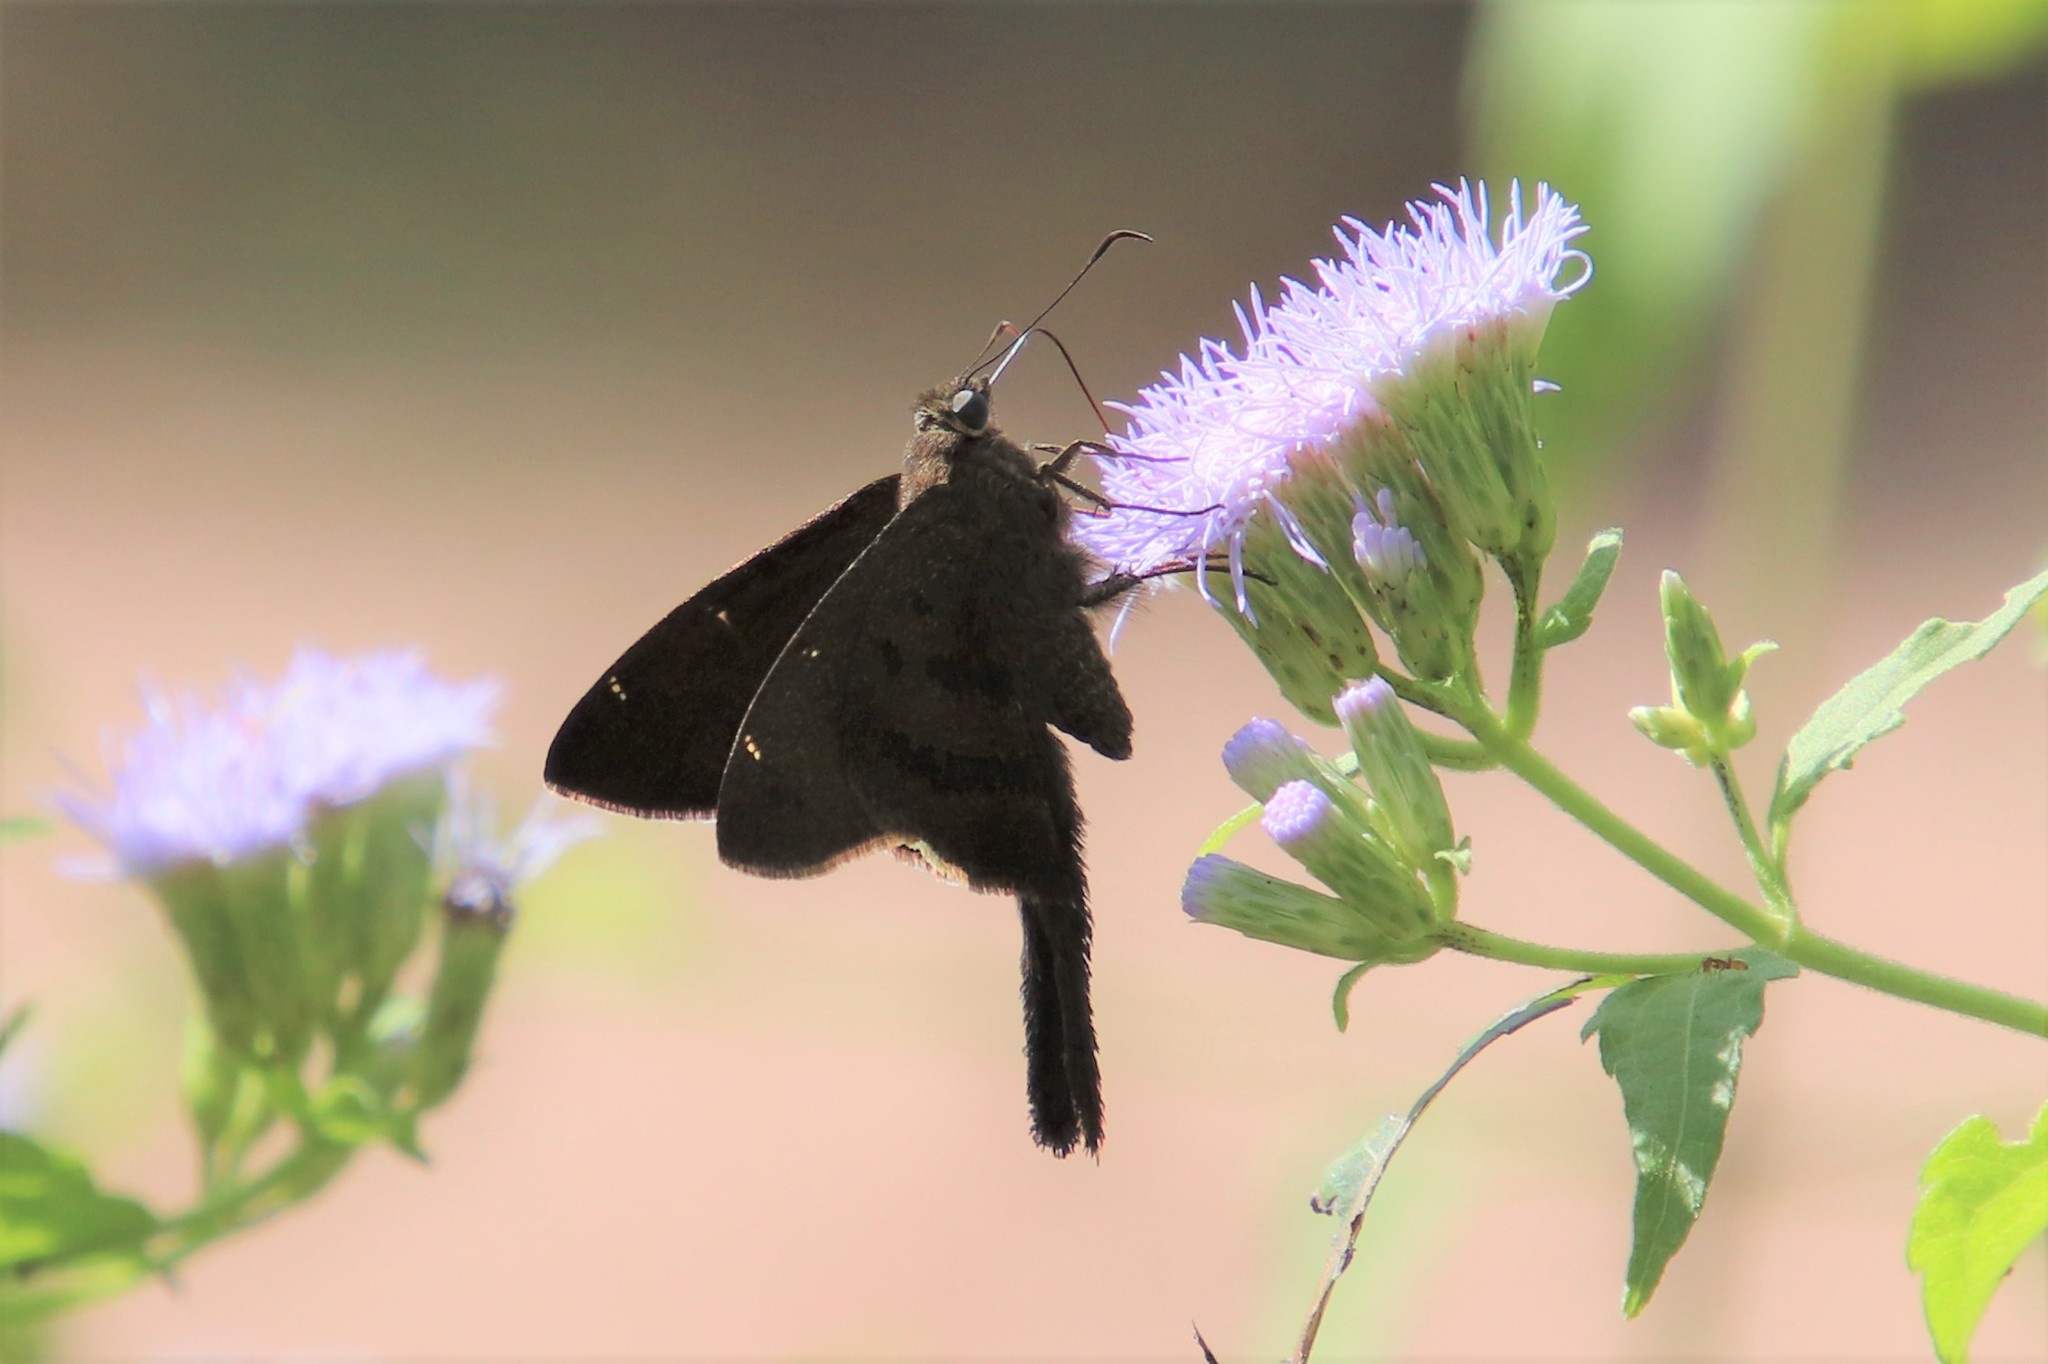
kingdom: Animalia
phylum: Arthropoda
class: Insecta
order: Lepidoptera
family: Hesperiidae
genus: Urbanus
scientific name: Urbanus procne
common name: Brown longtail
